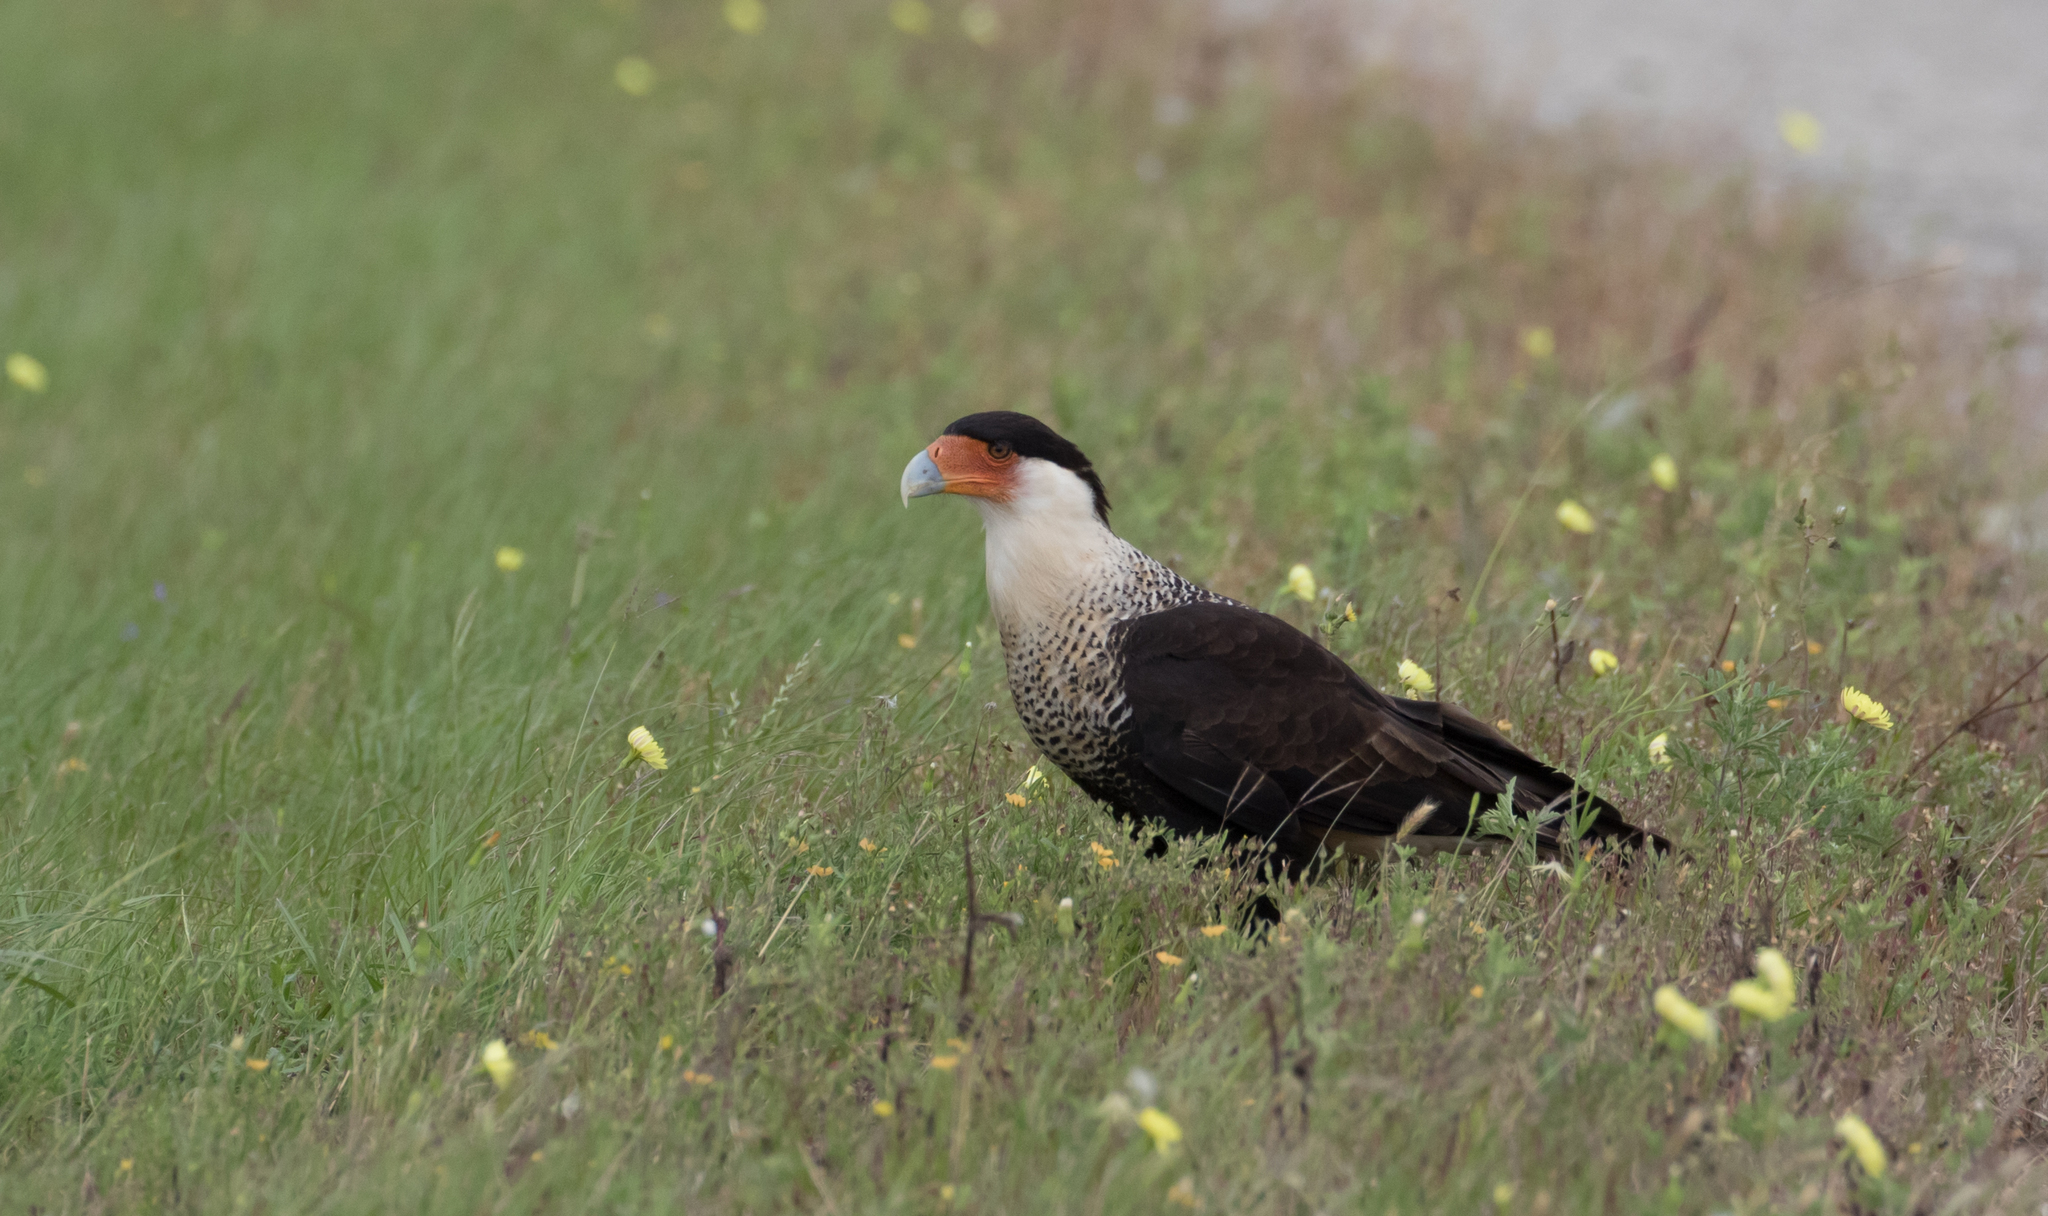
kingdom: Animalia
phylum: Chordata
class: Aves
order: Falconiformes
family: Falconidae
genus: Caracara
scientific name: Caracara plancus
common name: Southern caracara
